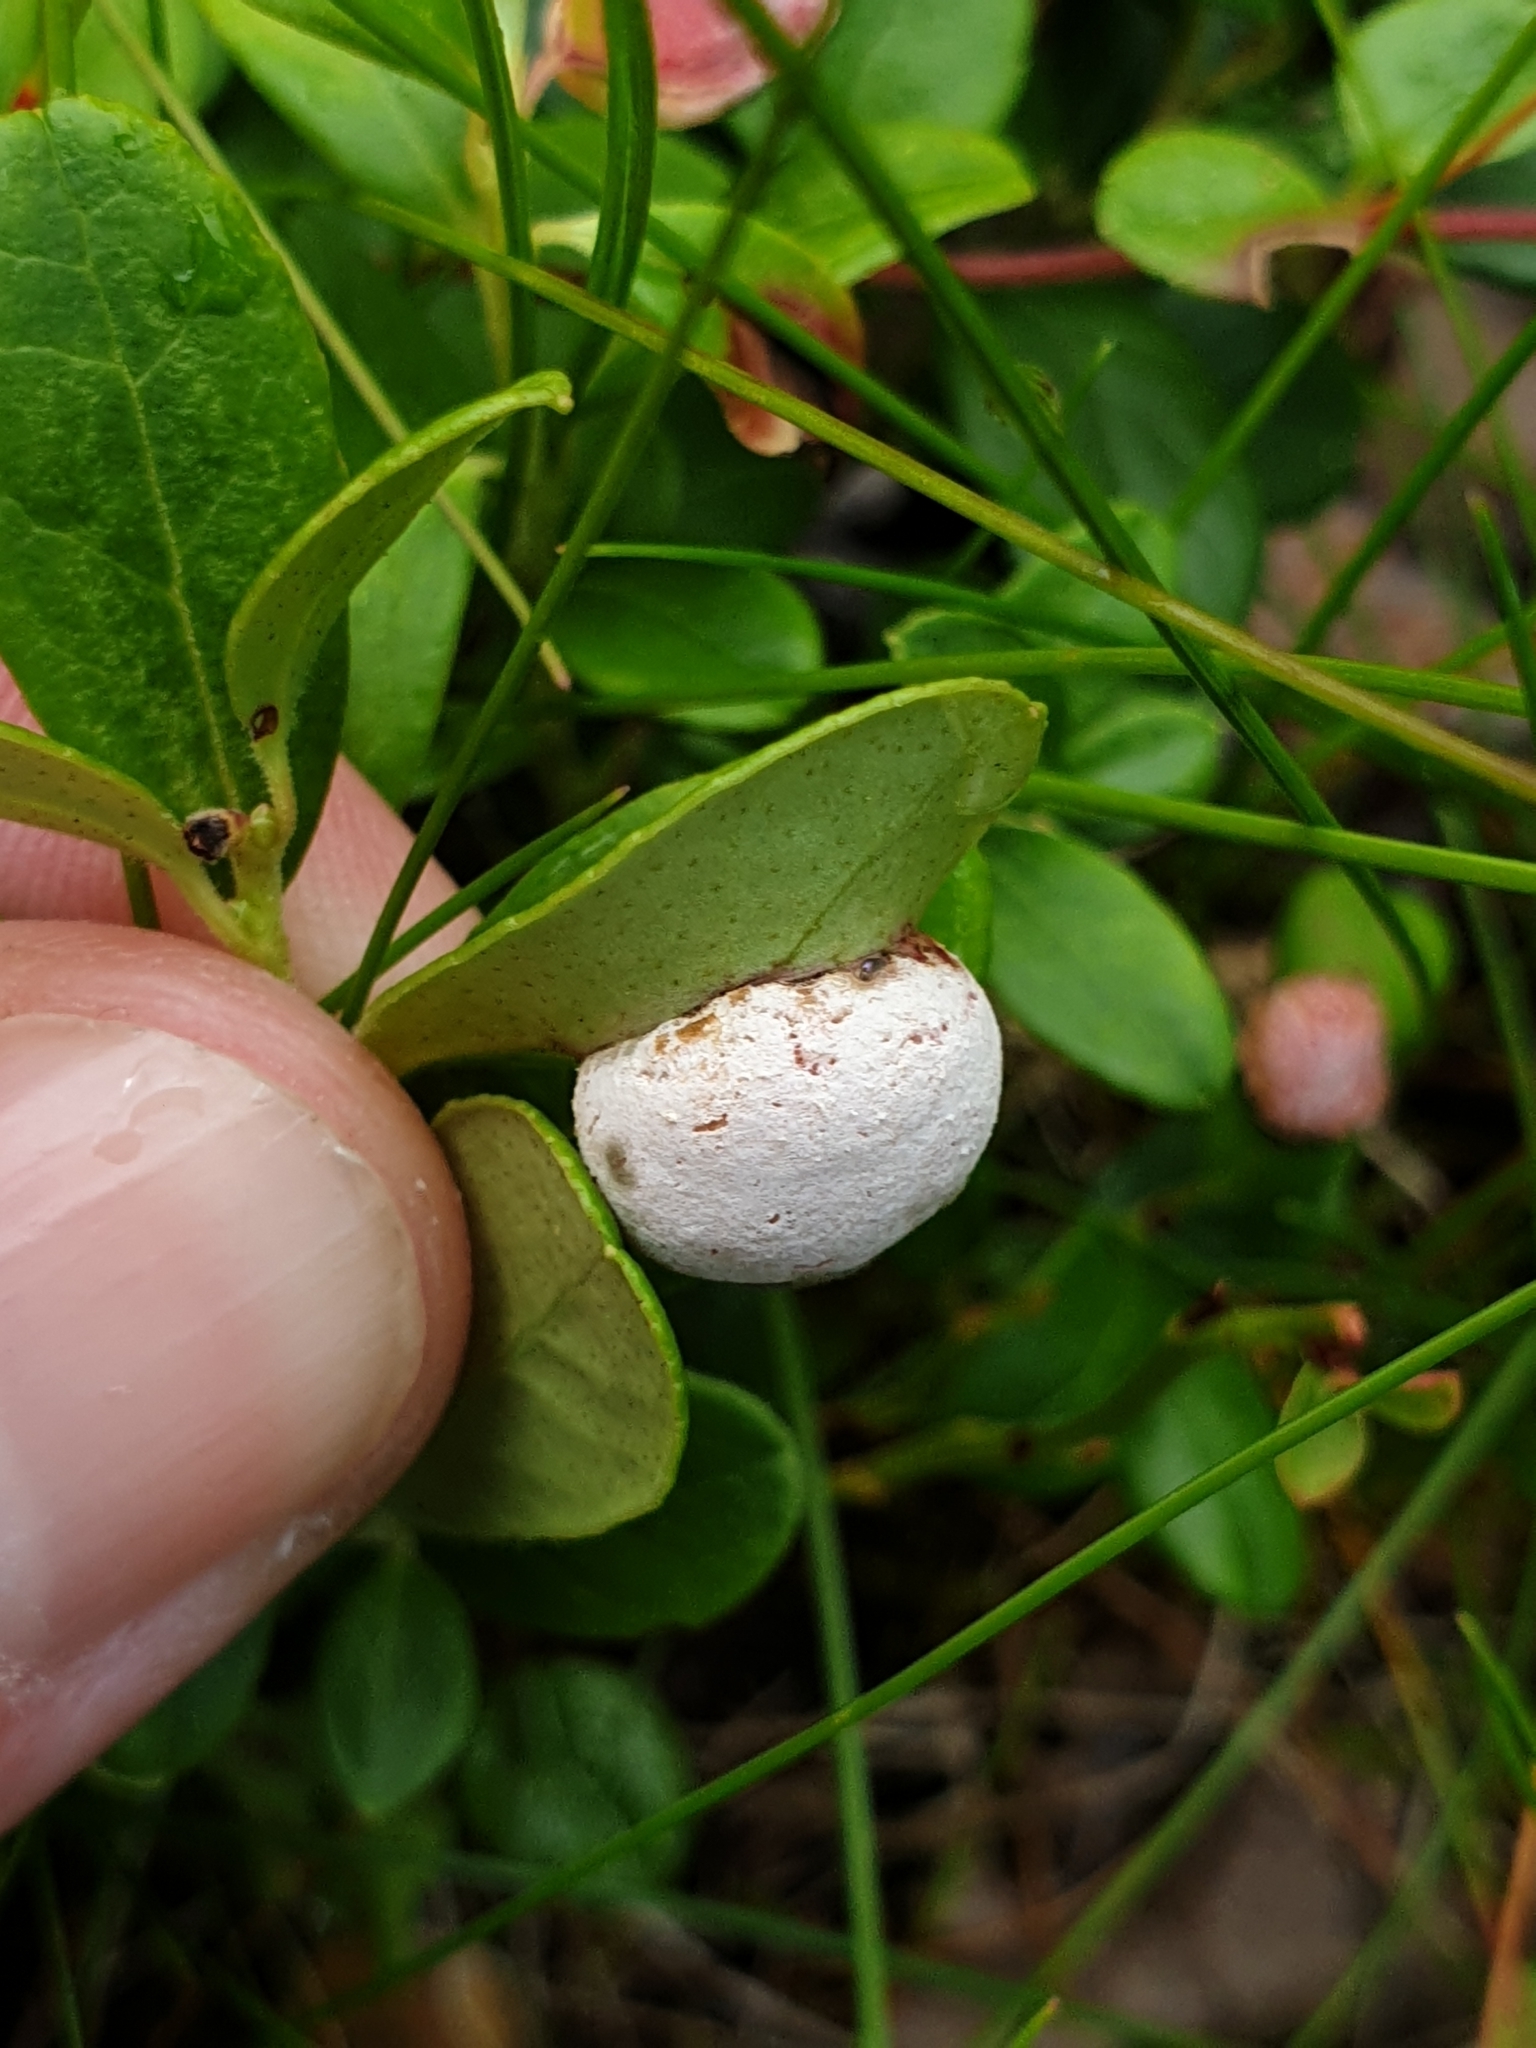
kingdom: Fungi
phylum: Basidiomycota
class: Exobasidiomycetes
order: Exobasidiales
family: Exobasidiaceae
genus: Exobasidium
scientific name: Exobasidium vaccinii
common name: Cowberry redleaf
